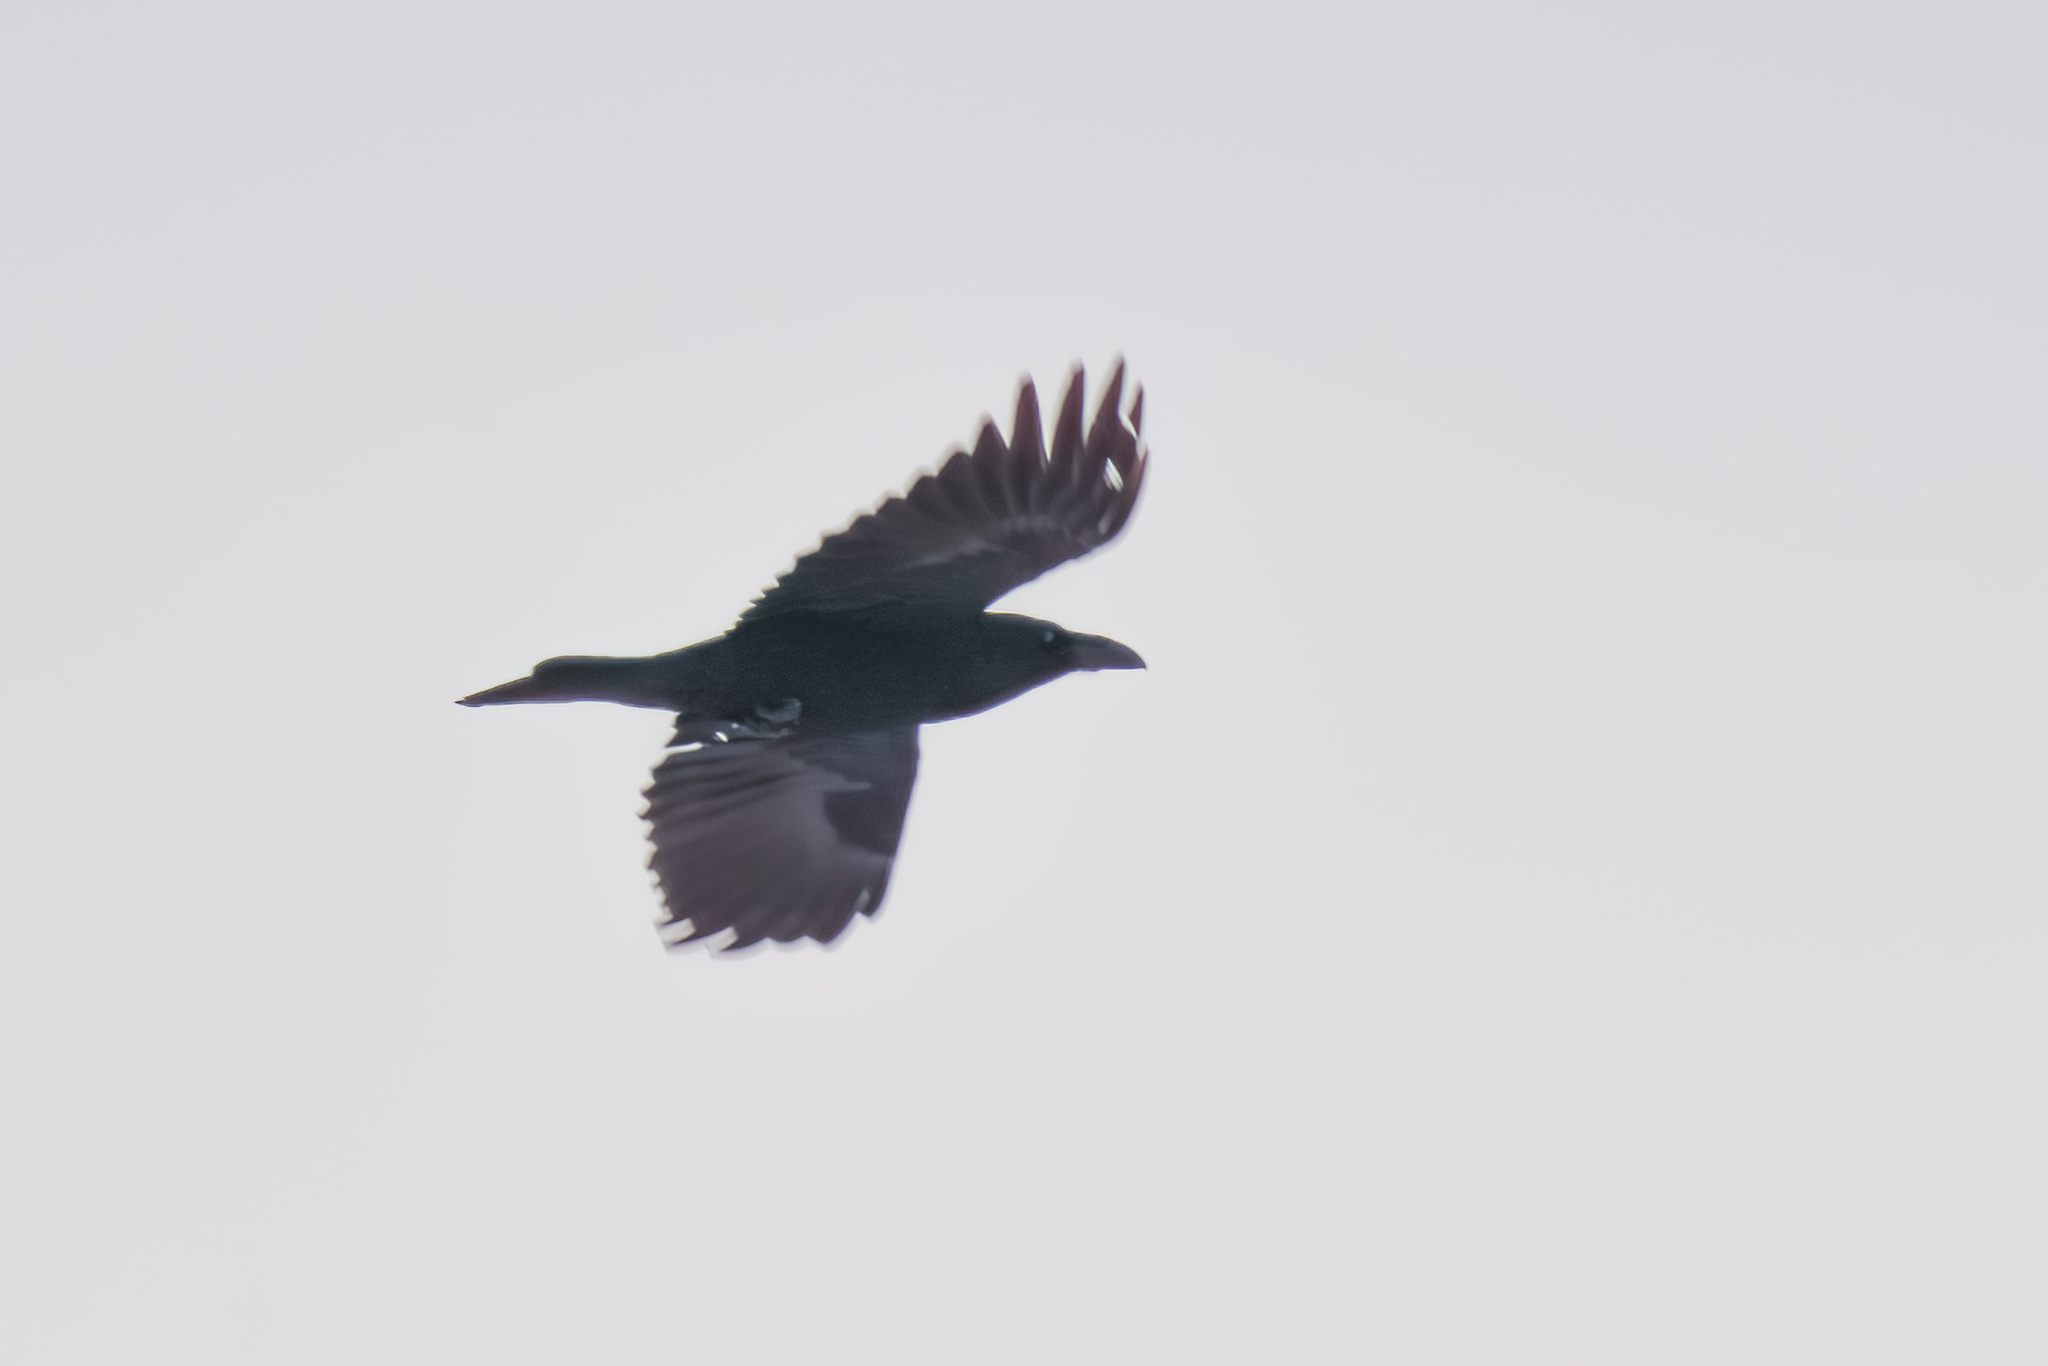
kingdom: Animalia
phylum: Chordata
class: Aves
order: Passeriformes
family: Corvidae
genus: Corvus
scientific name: Corvus corax
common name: Common raven
